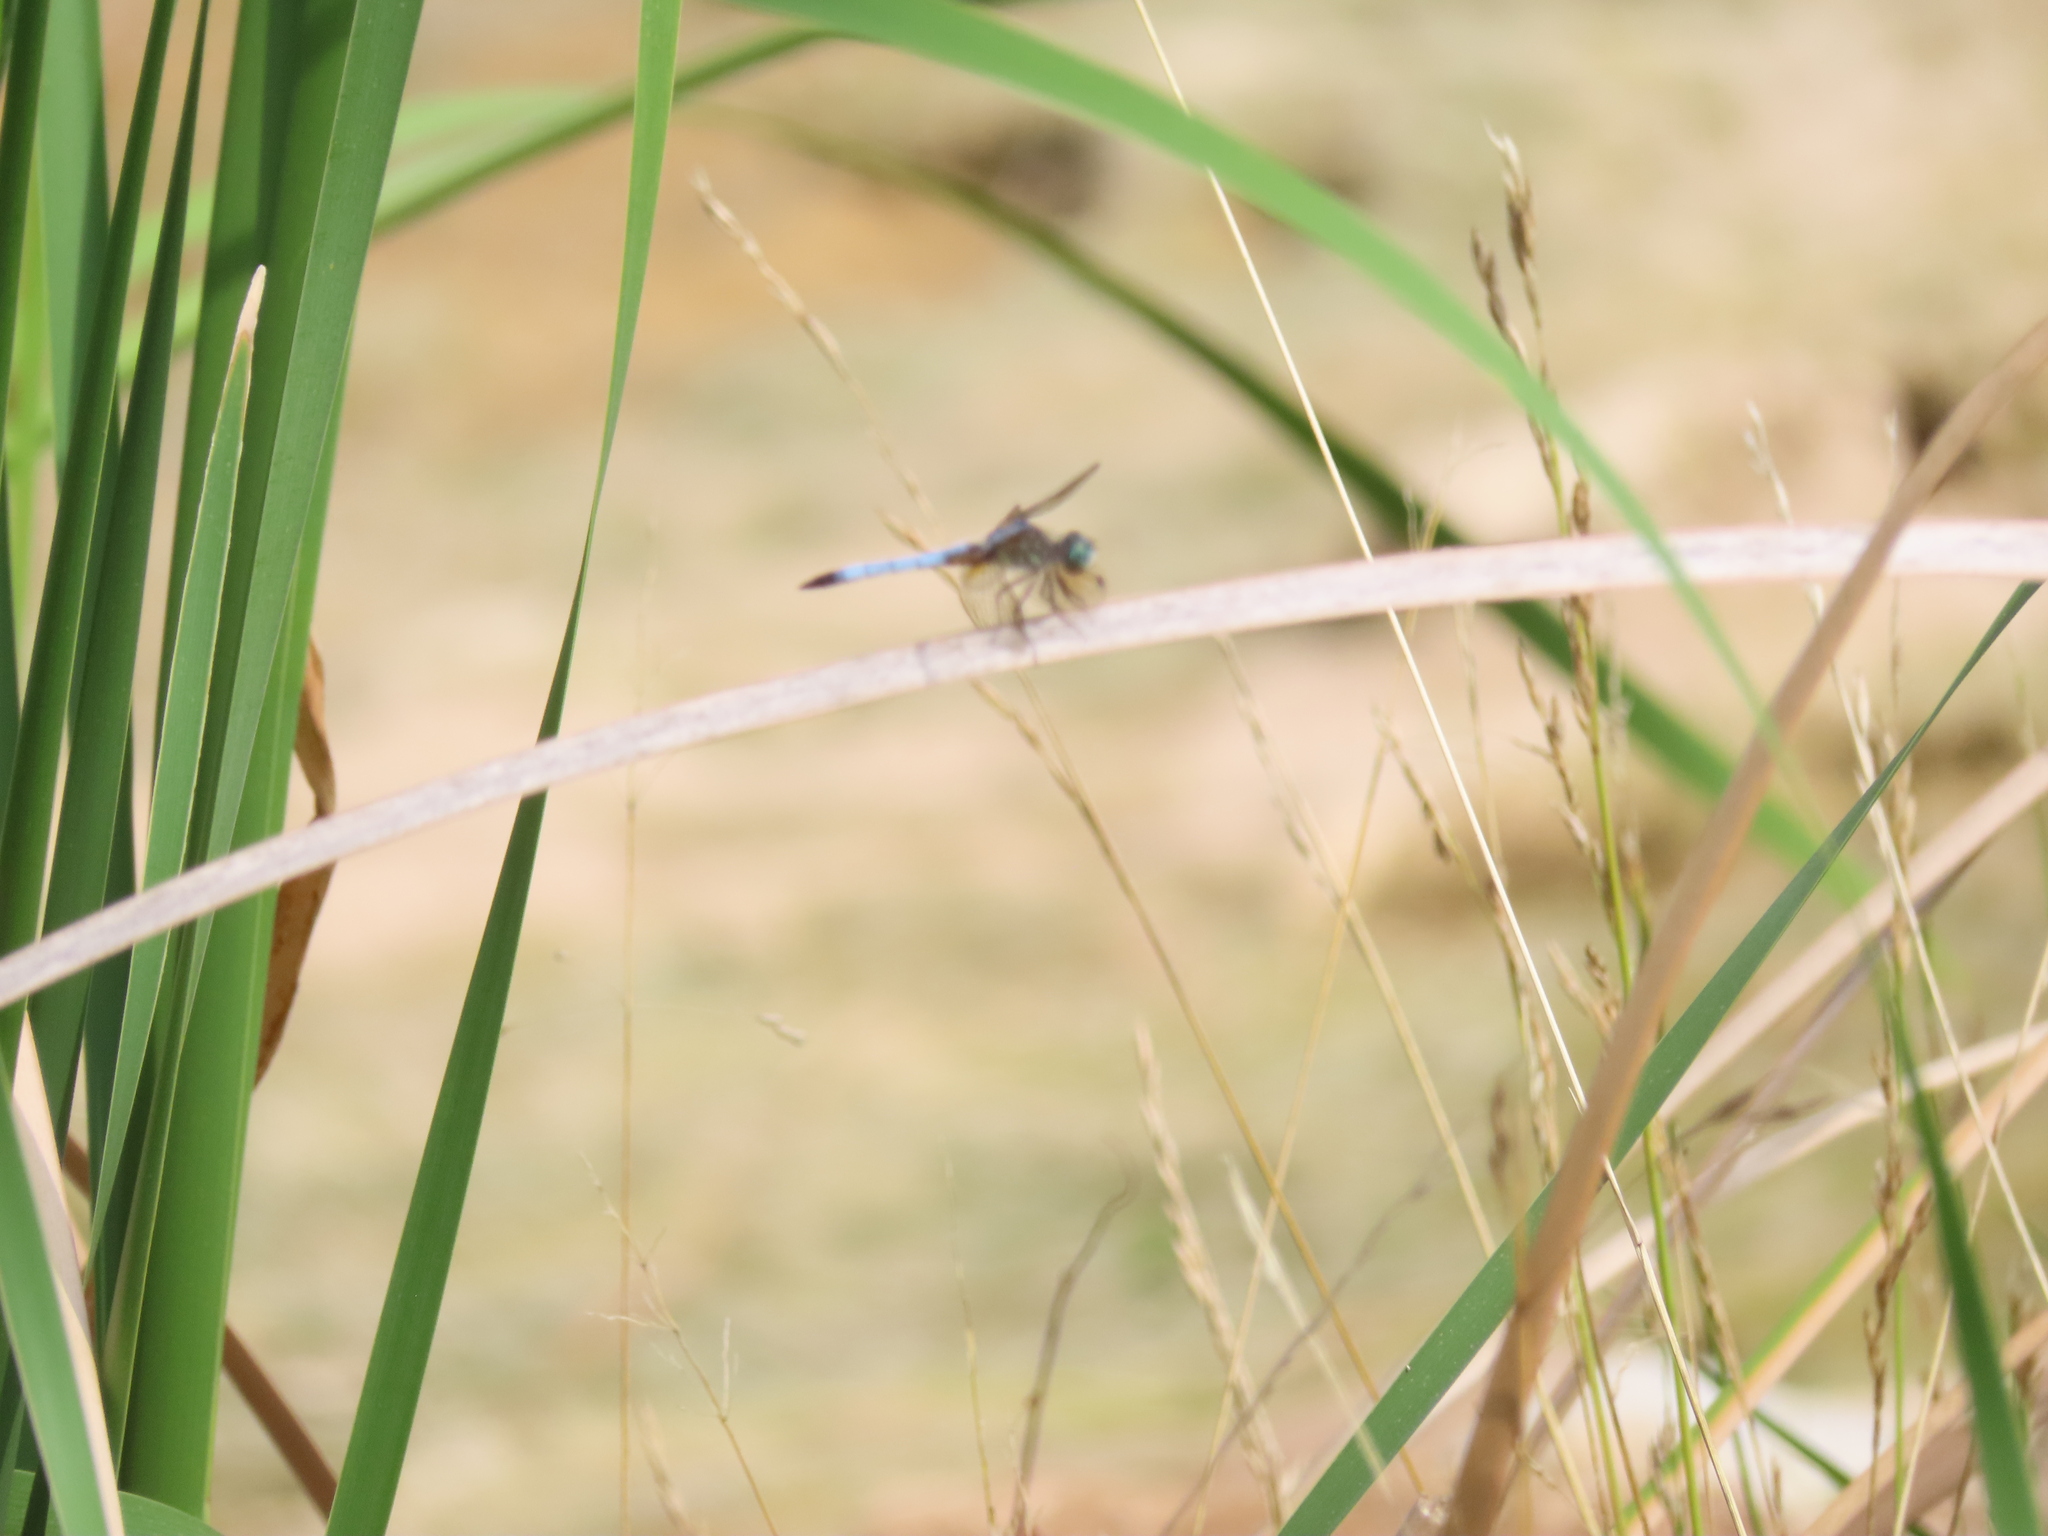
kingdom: Animalia
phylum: Arthropoda
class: Insecta
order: Odonata
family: Libellulidae
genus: Pachydiplax
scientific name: Pachydiplax longipennis
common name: Blue dasher
